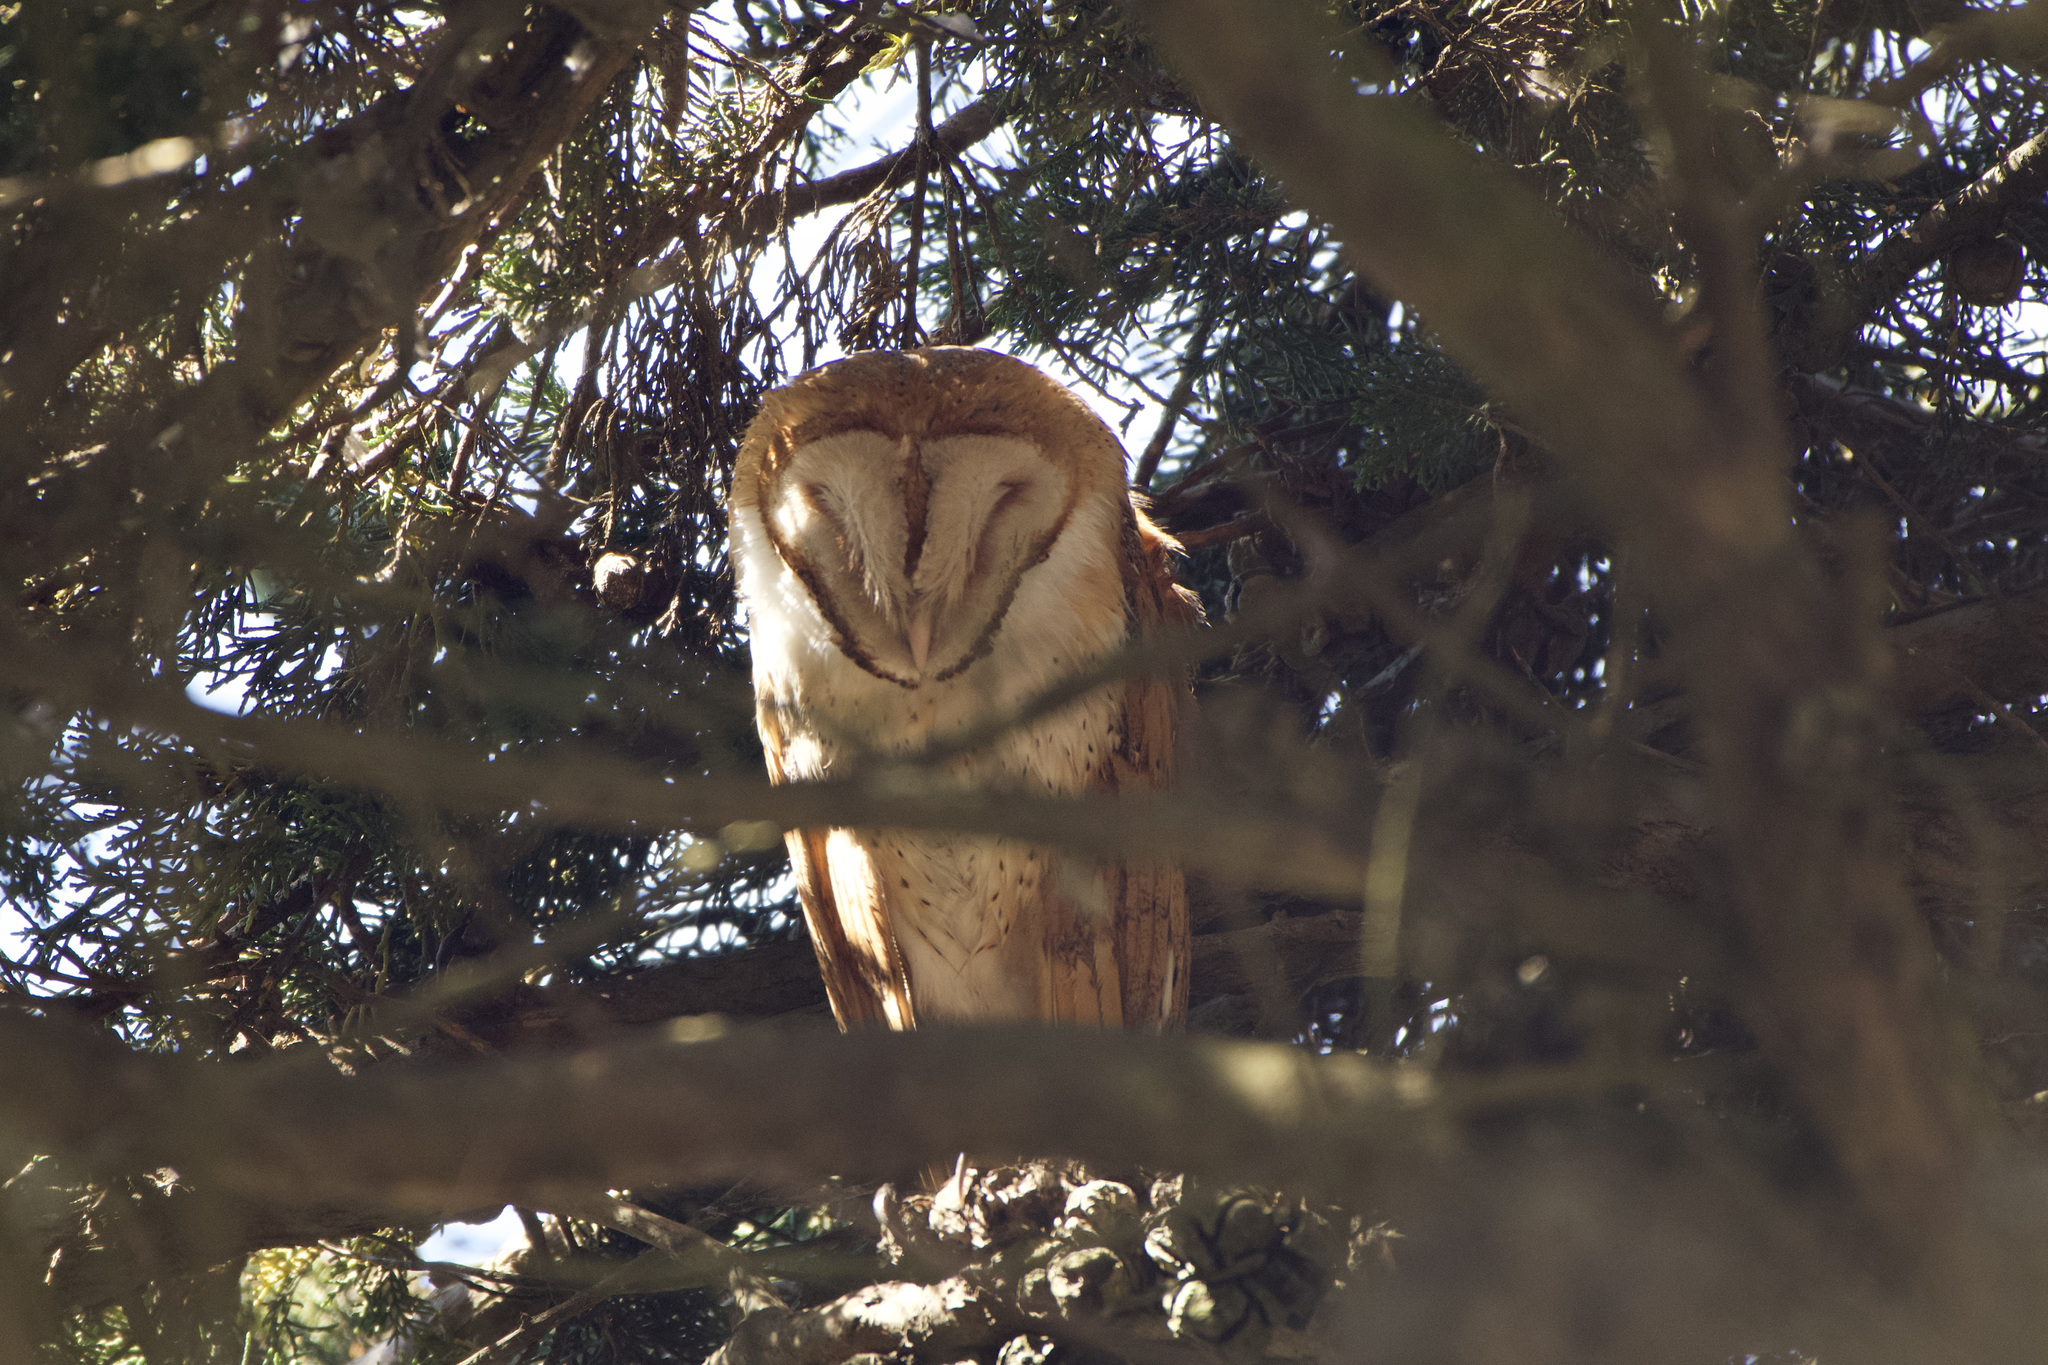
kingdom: Animalia
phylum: Chordata
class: Aves
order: Strigiformes
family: Tytonidae
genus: Tyto
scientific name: Tyto alba
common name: Barn owl
